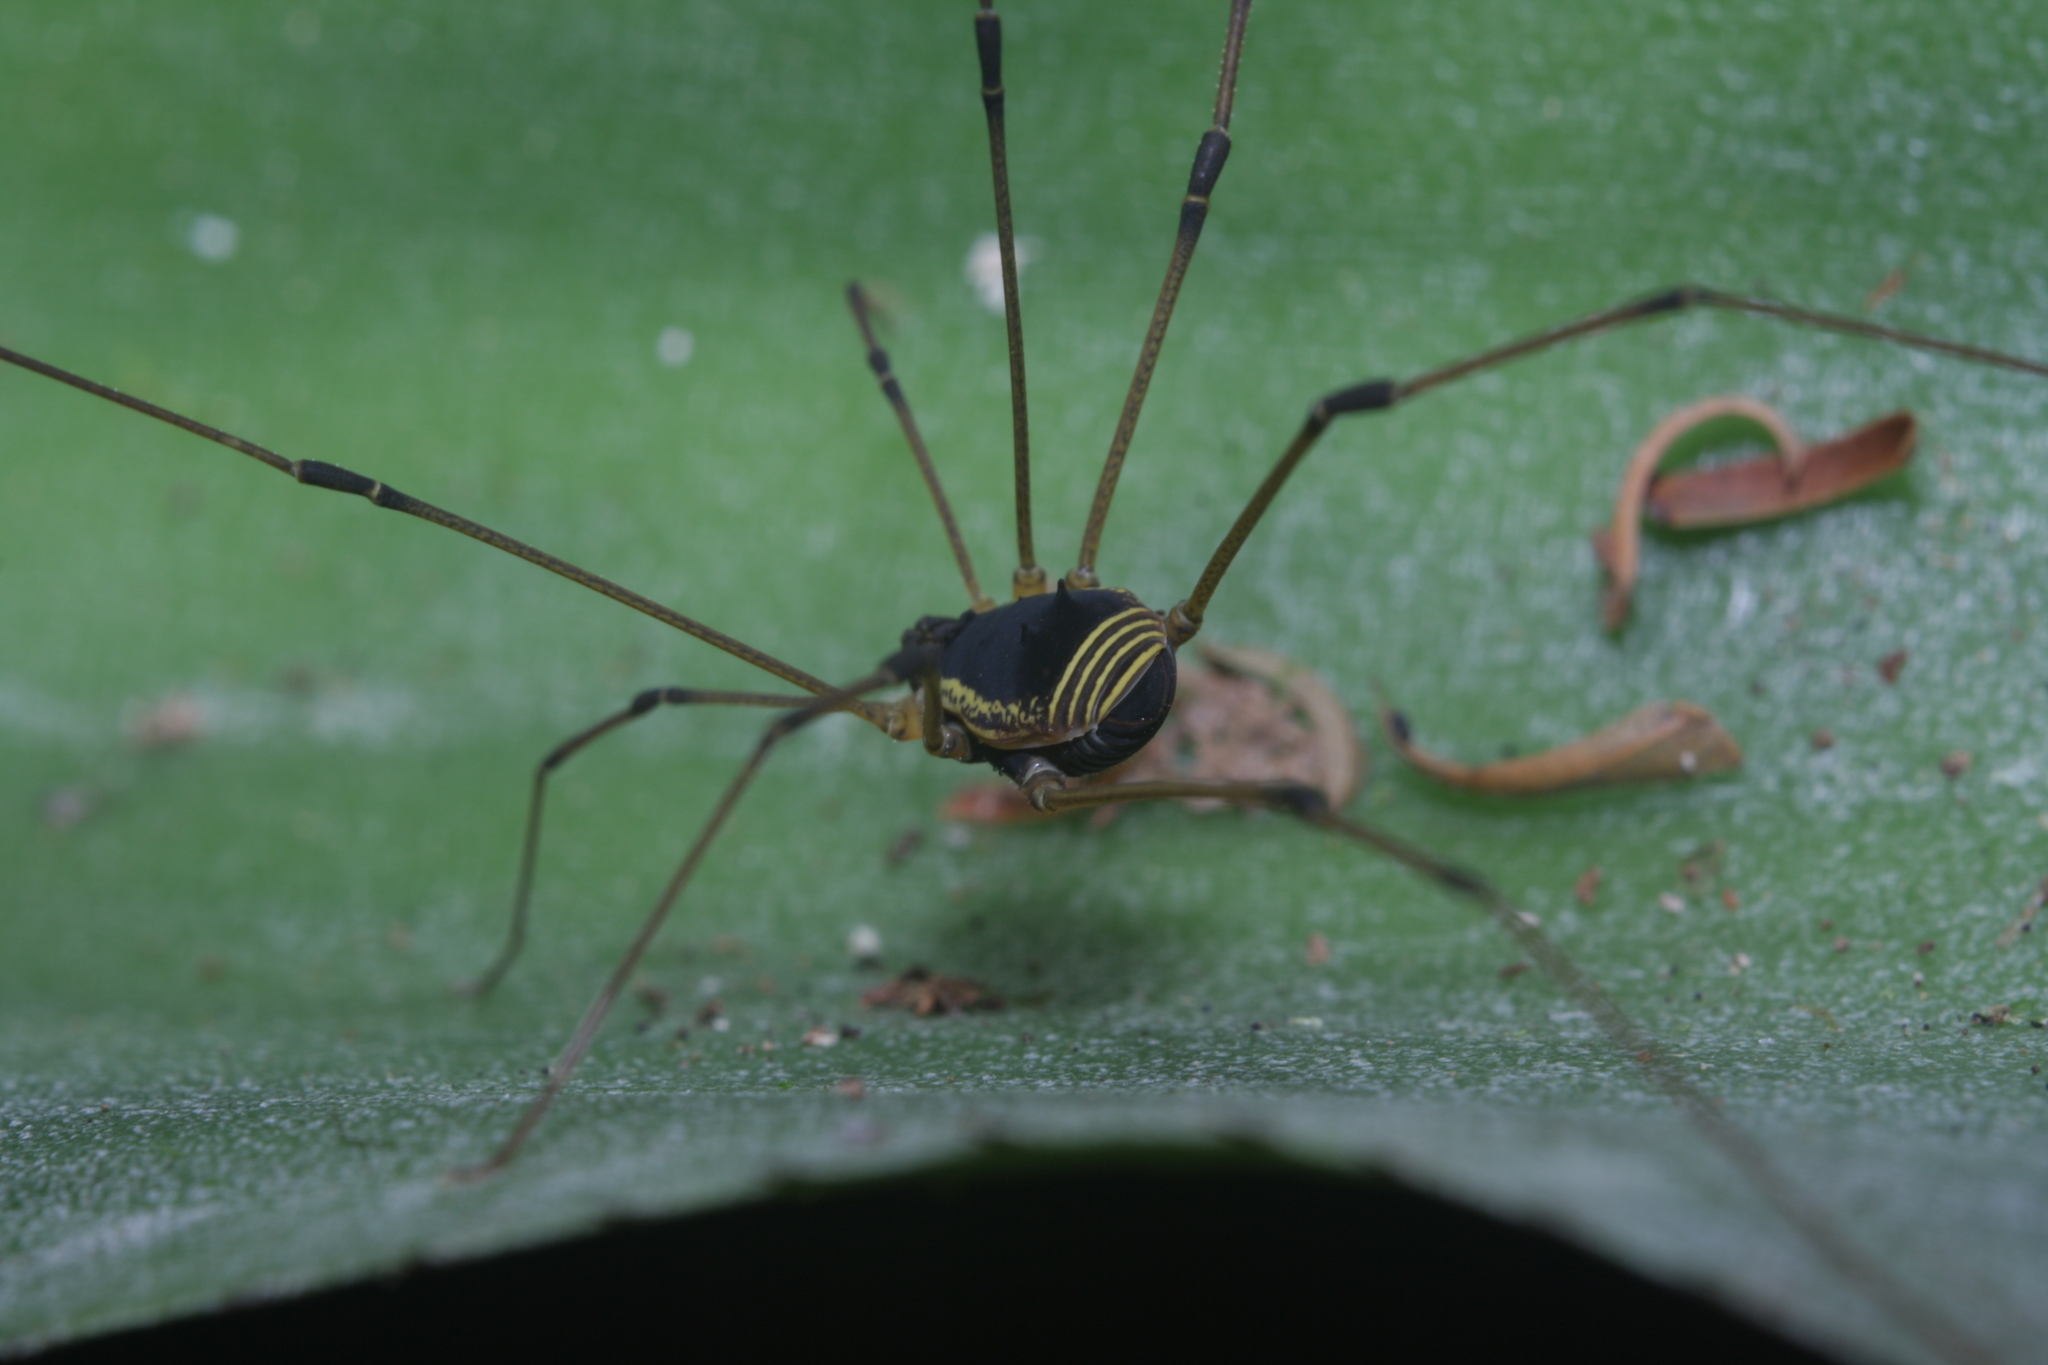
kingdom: Animalia
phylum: Arthropoda
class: Arachnida
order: Opiliones
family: Cosmetidae
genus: Cynorta
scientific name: Cynorta marginalis
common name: Harvestmen
